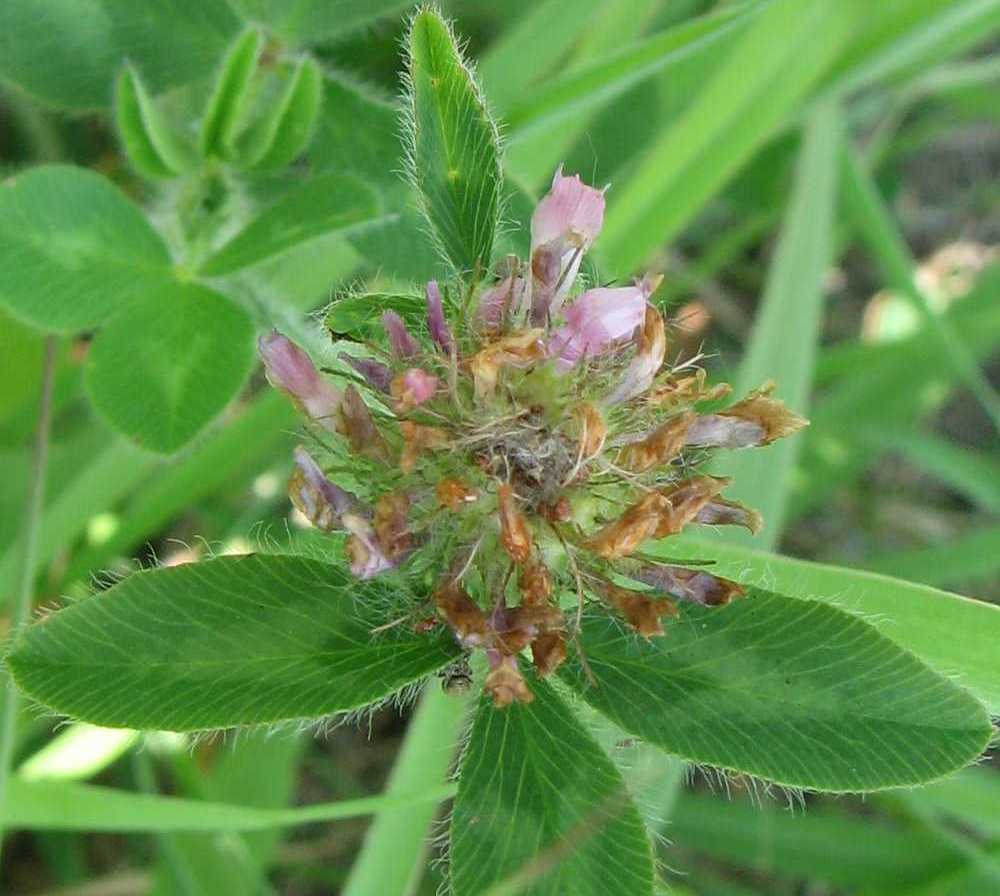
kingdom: Plantae
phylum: Tracheophyta
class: Magnoliopsida
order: Fabales
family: Fabaceae
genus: Trifolium
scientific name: Trifolium pratense
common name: Red clover
